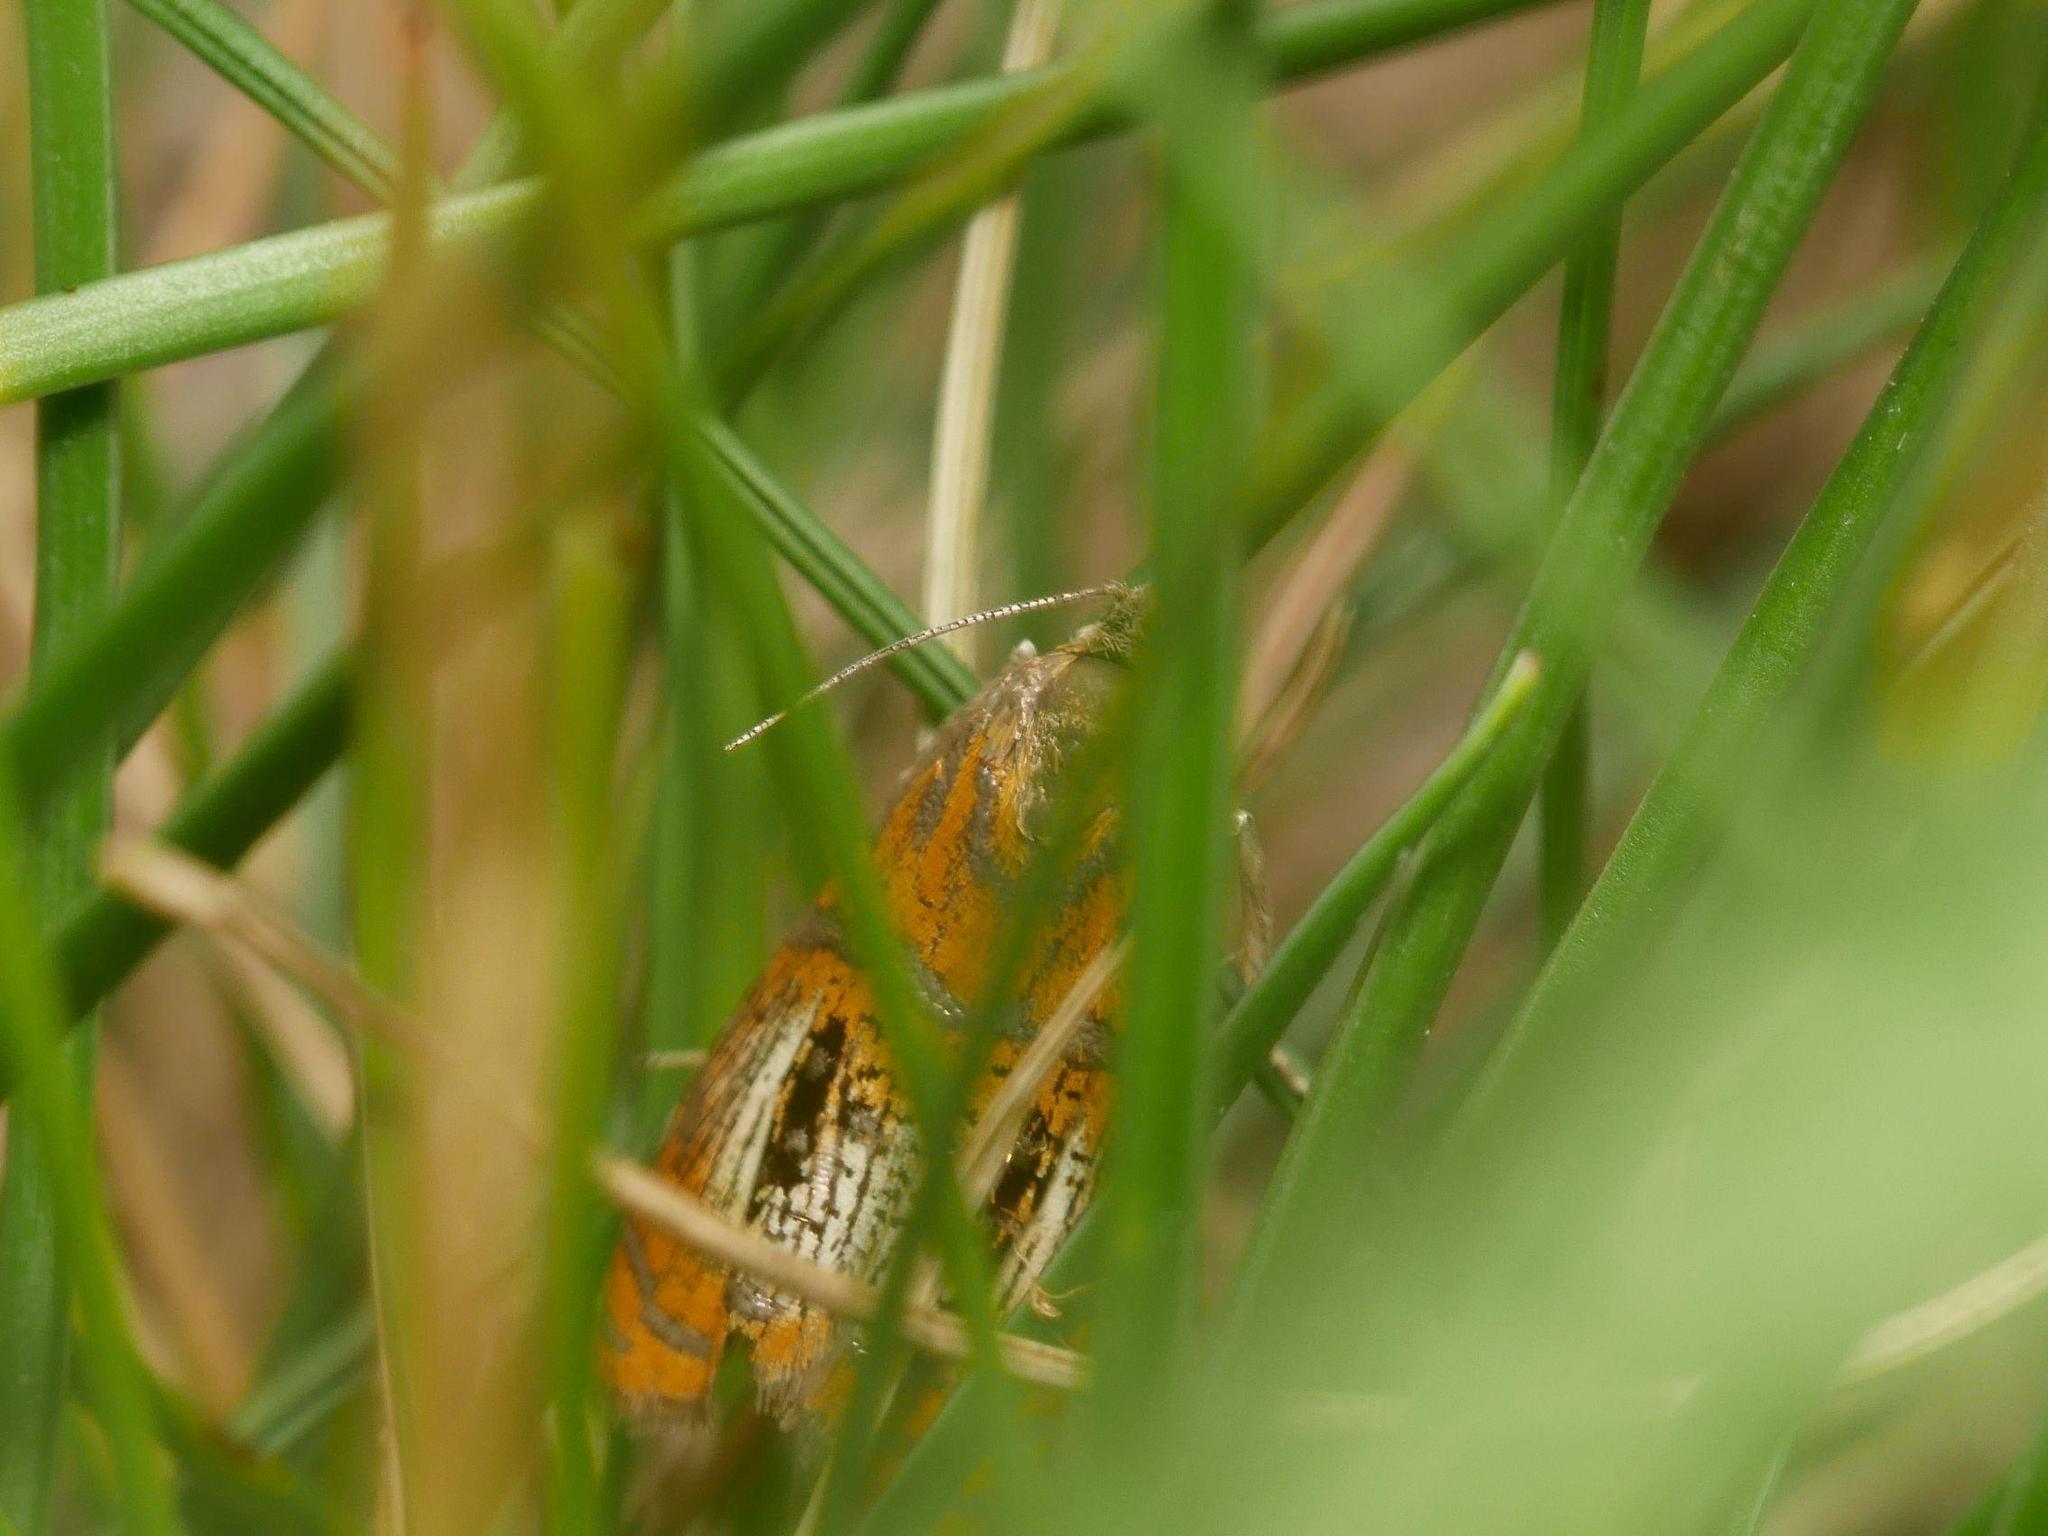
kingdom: Animalia
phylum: Arthropoda
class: Insecta
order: Lepidoptera
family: Tortricidae
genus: Olethreutes
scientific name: Olethreutes arcuella
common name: Arched marble
